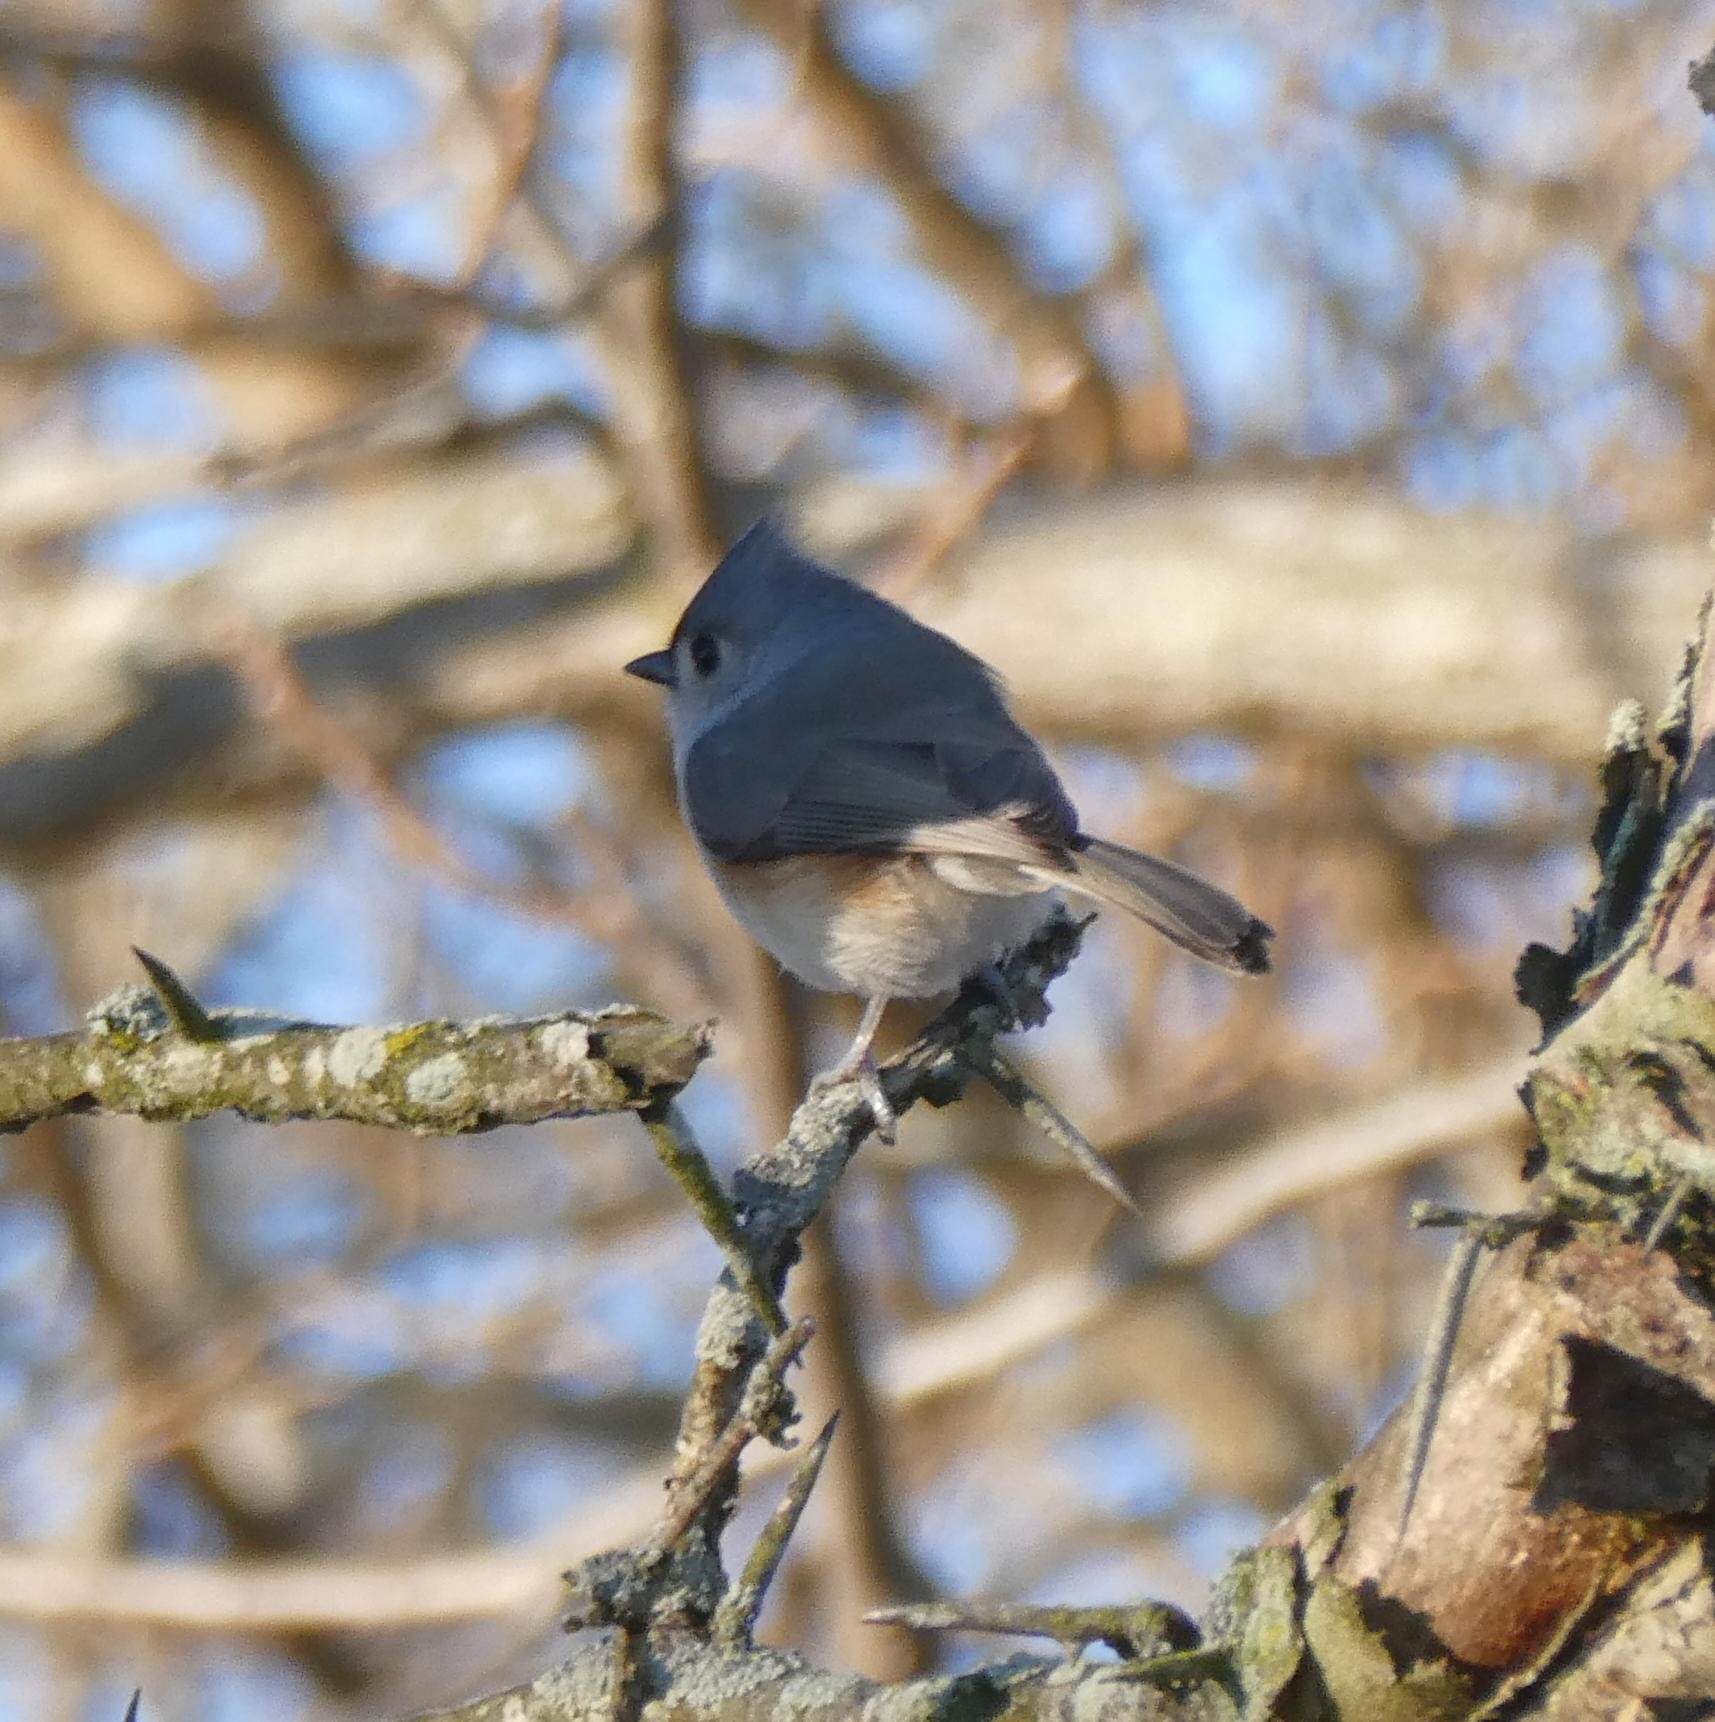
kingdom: Animalia
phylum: Chordata
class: Aves
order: Passeriformes
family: Paridae
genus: Baeolophus
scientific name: Baeolophus bicolor
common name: Tufted titmouse
